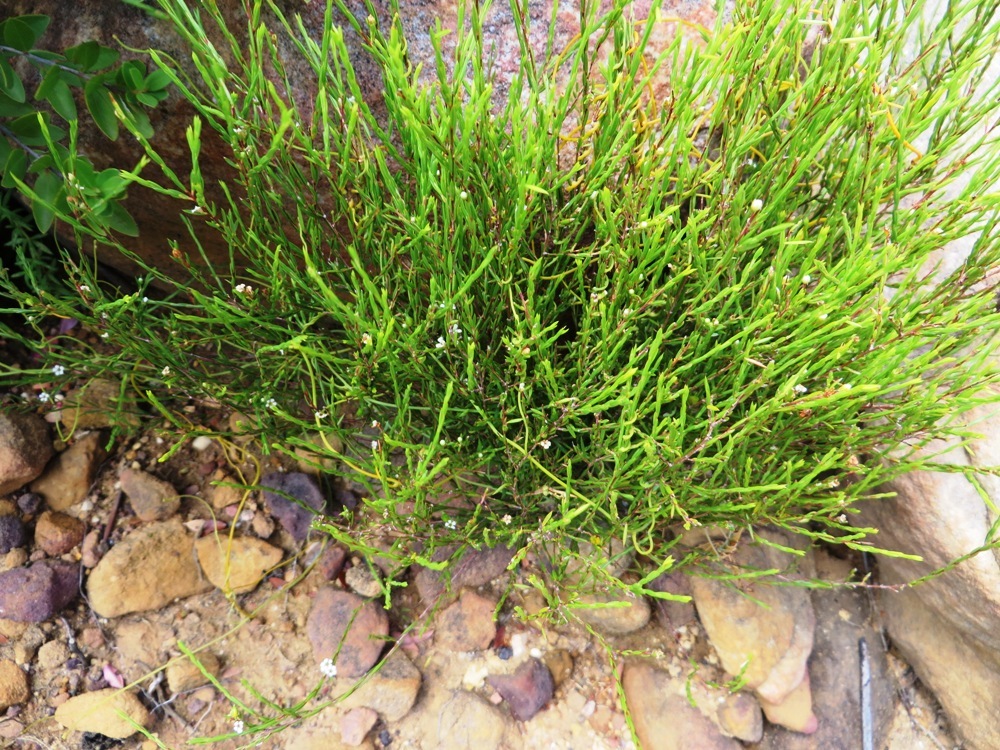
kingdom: Plantae
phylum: Tracheophyta
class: Magnoliopsida
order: Sapindales
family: Rutaceae
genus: Coleonema
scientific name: Coleonema juniperinum
